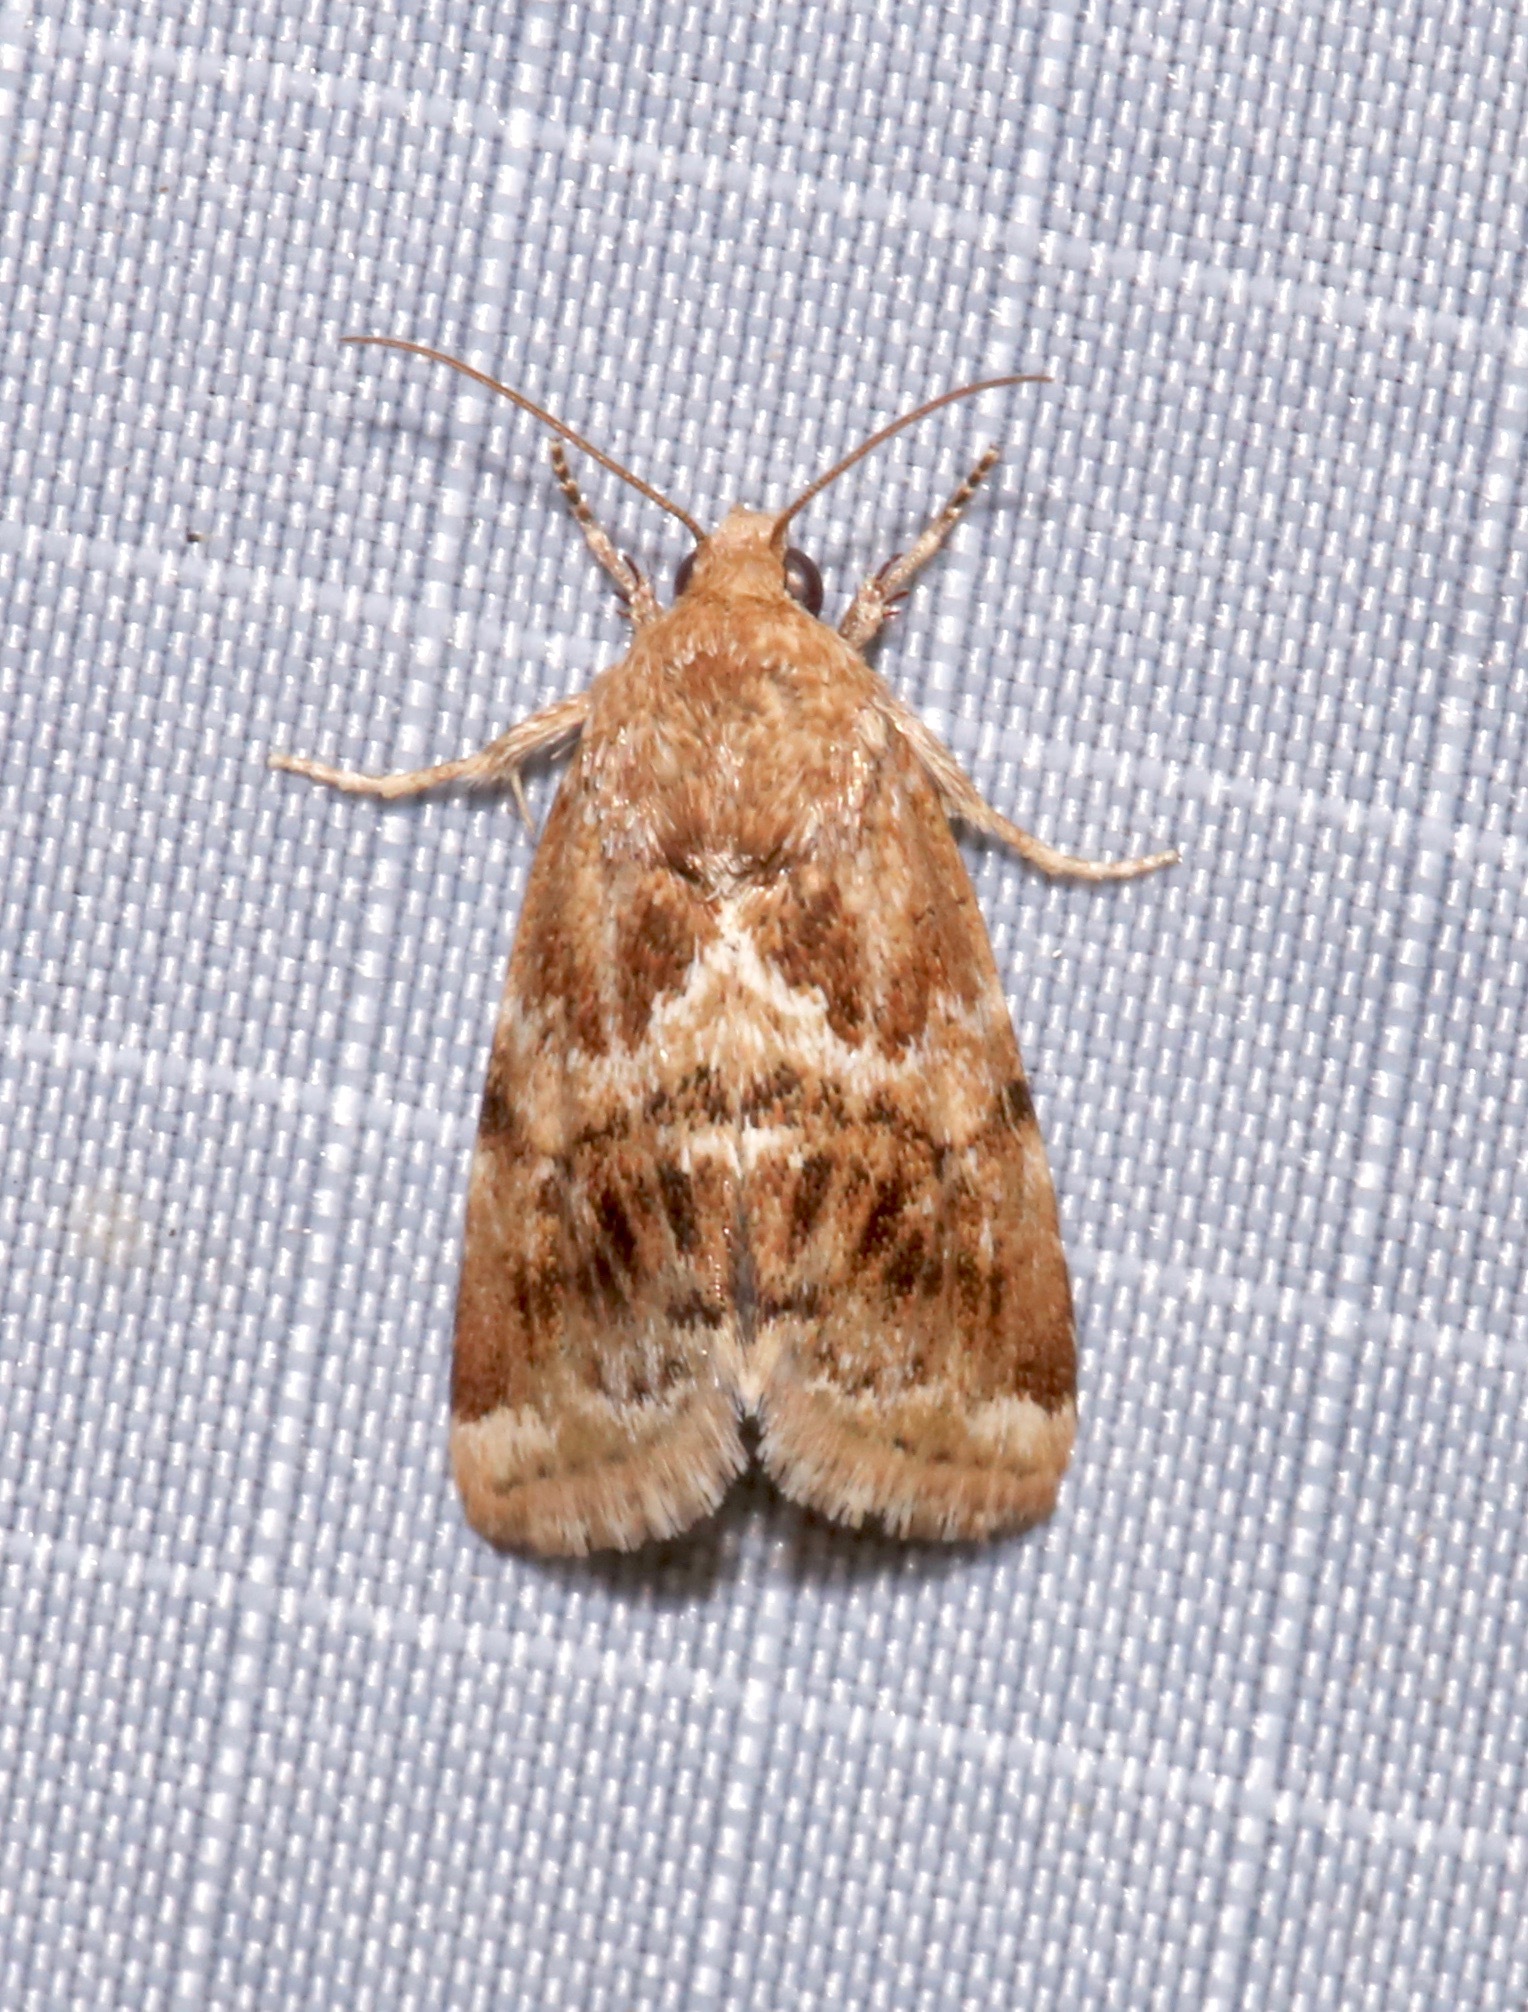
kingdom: Animalia
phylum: Arthropoda
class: Insecta
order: Lepidoptera
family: Noctuidae
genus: Schinia
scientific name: Schinia sordida
